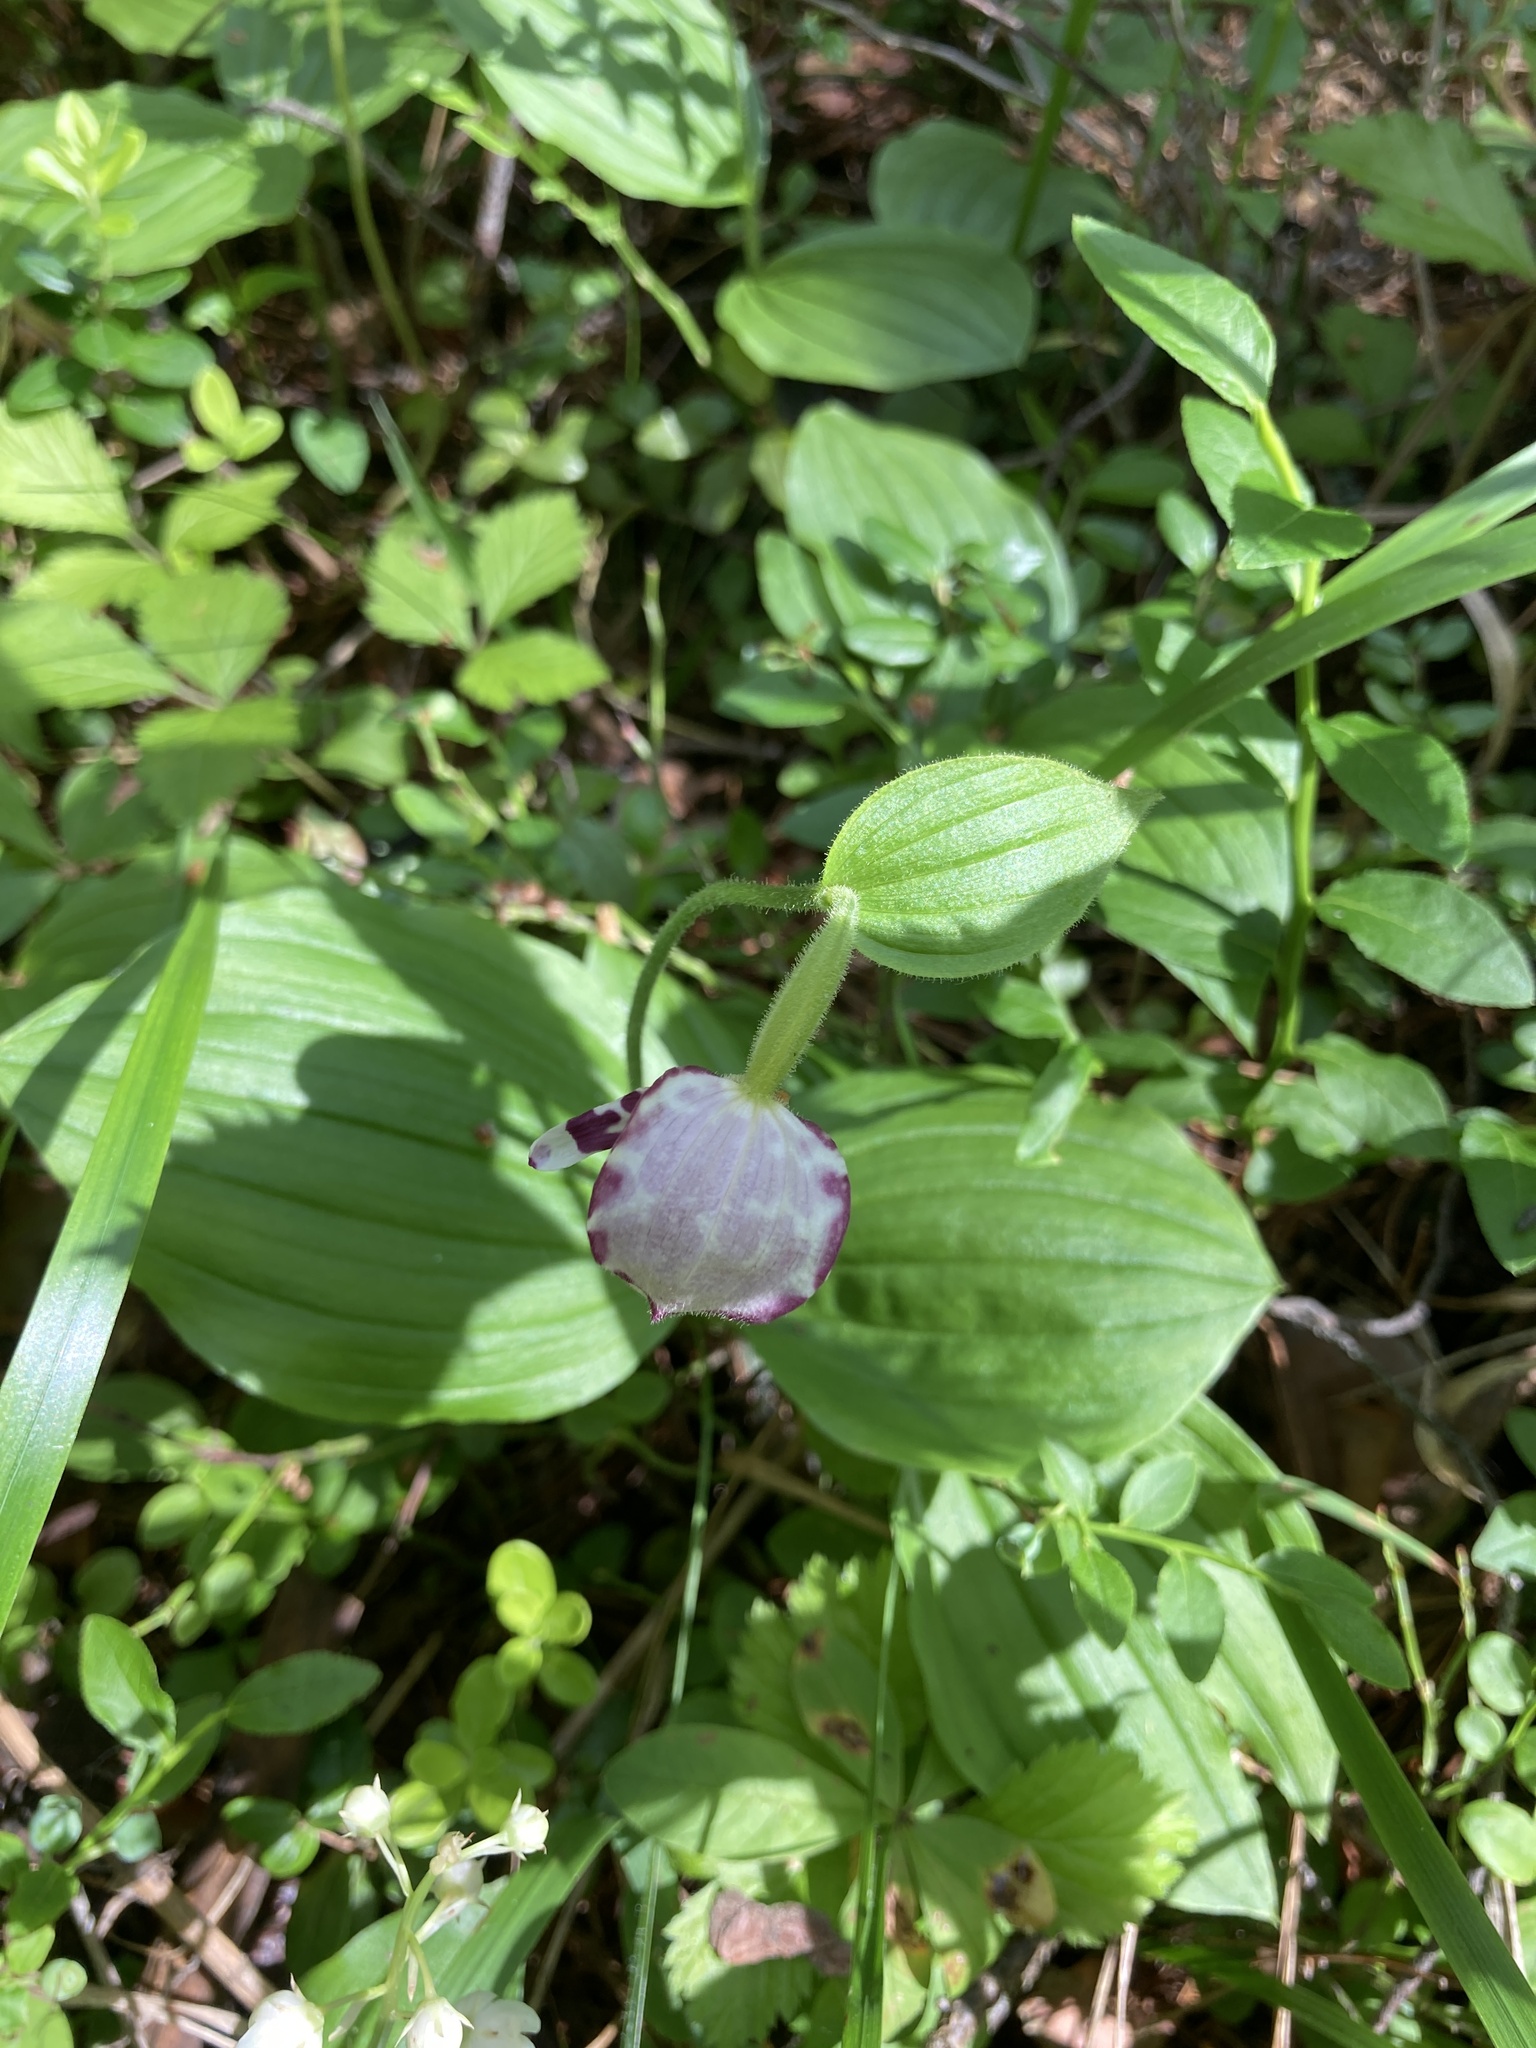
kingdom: Plantae
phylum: Tracheophyta
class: Liliopsida
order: Asparagales
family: Orchidaceae
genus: Cypripedium
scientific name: Cypripedium guttatum
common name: Pink lady slipper
